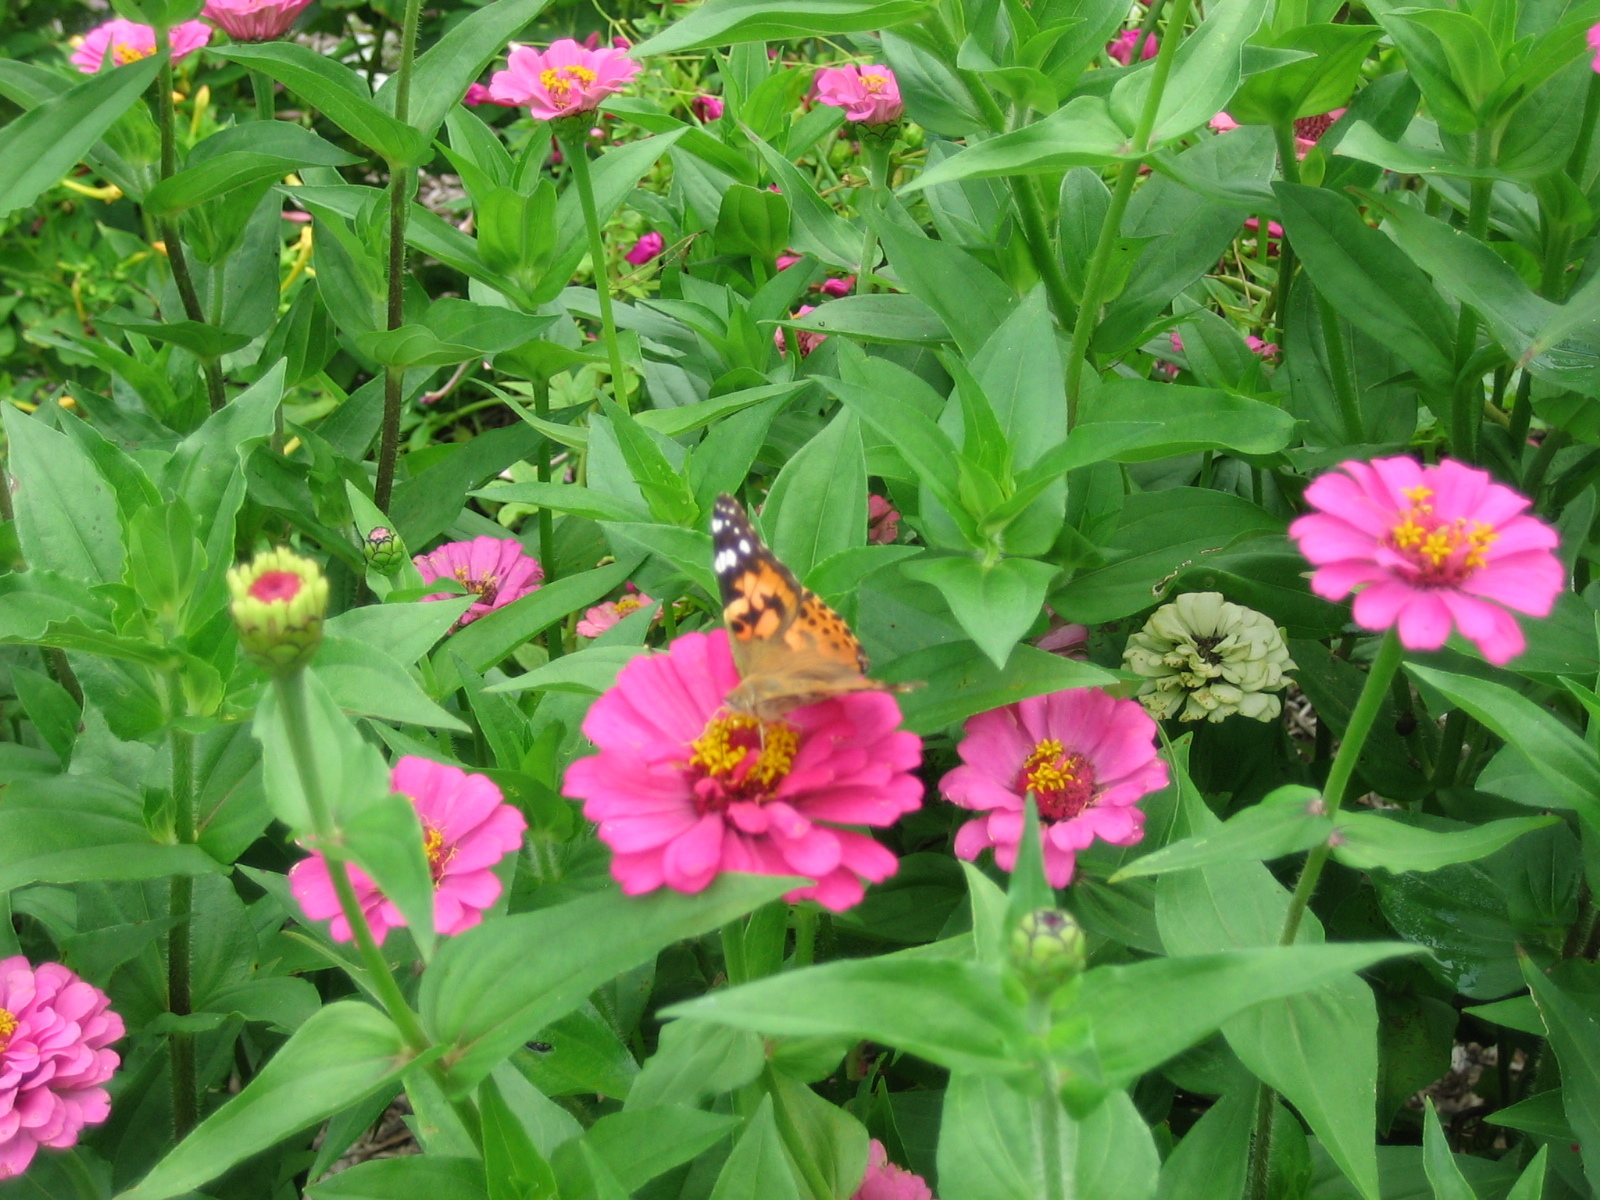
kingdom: Animalia
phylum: Arthropoda
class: Insecta
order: Lepidoptera
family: Nymphalidae
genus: Vanessa
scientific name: Vanessa cardui
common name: Painted lady
